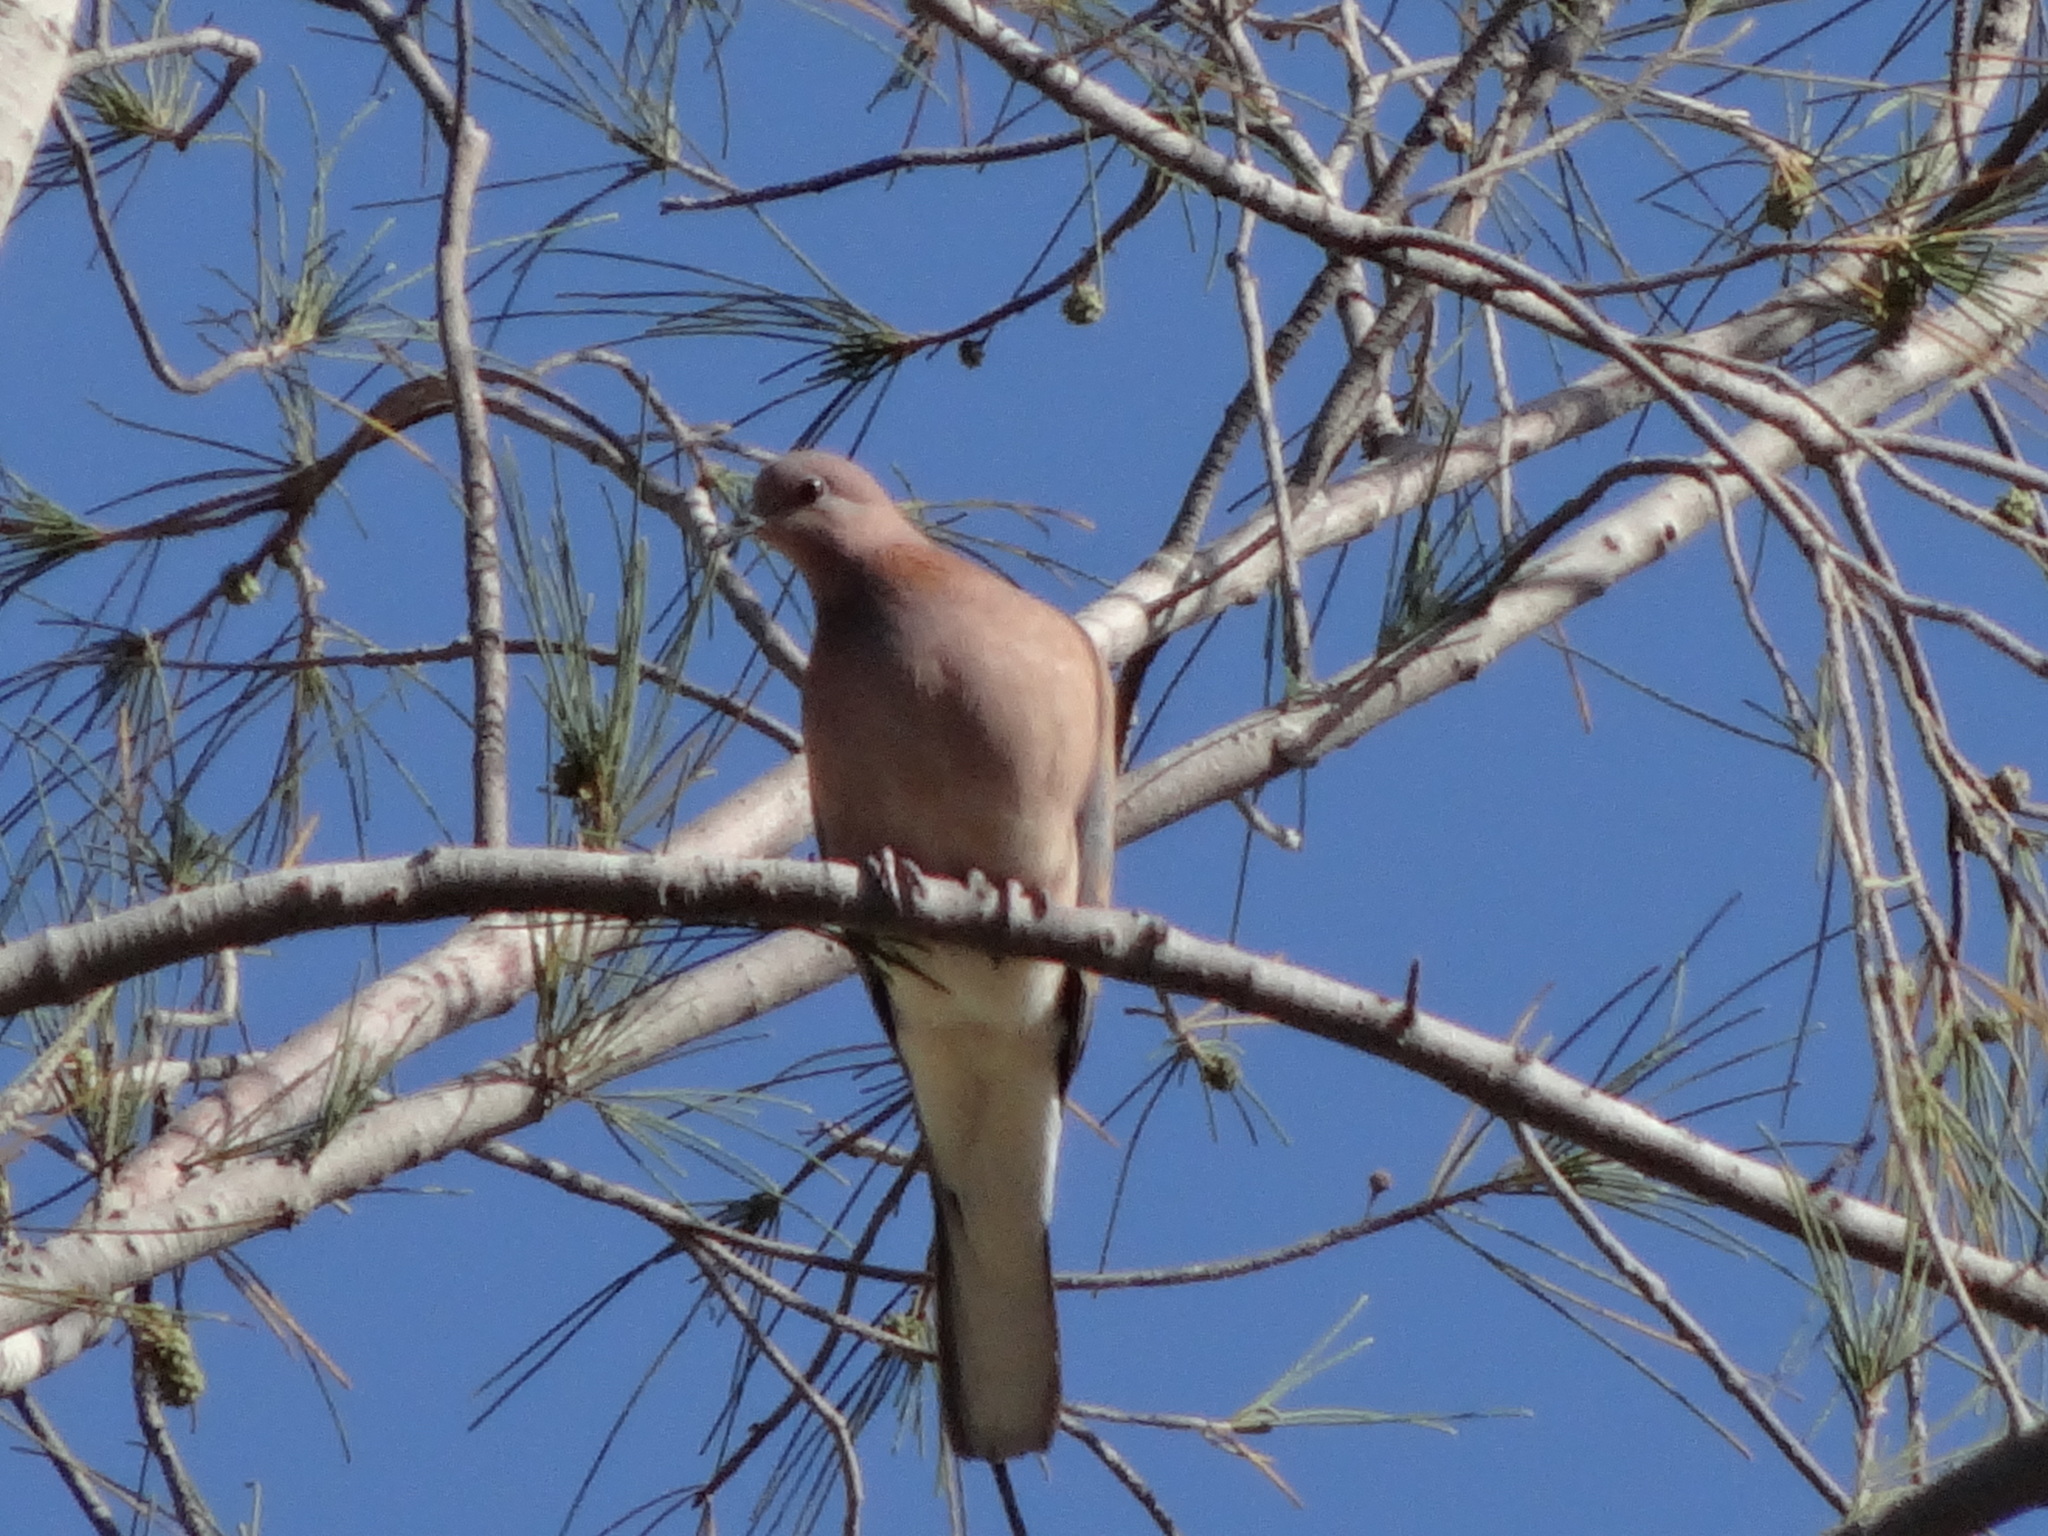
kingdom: Animalia
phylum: Chordata
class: Aves
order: Columbiformes
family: Columbidae
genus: Spilopelia
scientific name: Spilopelia senegalensis
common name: Laughing dove
